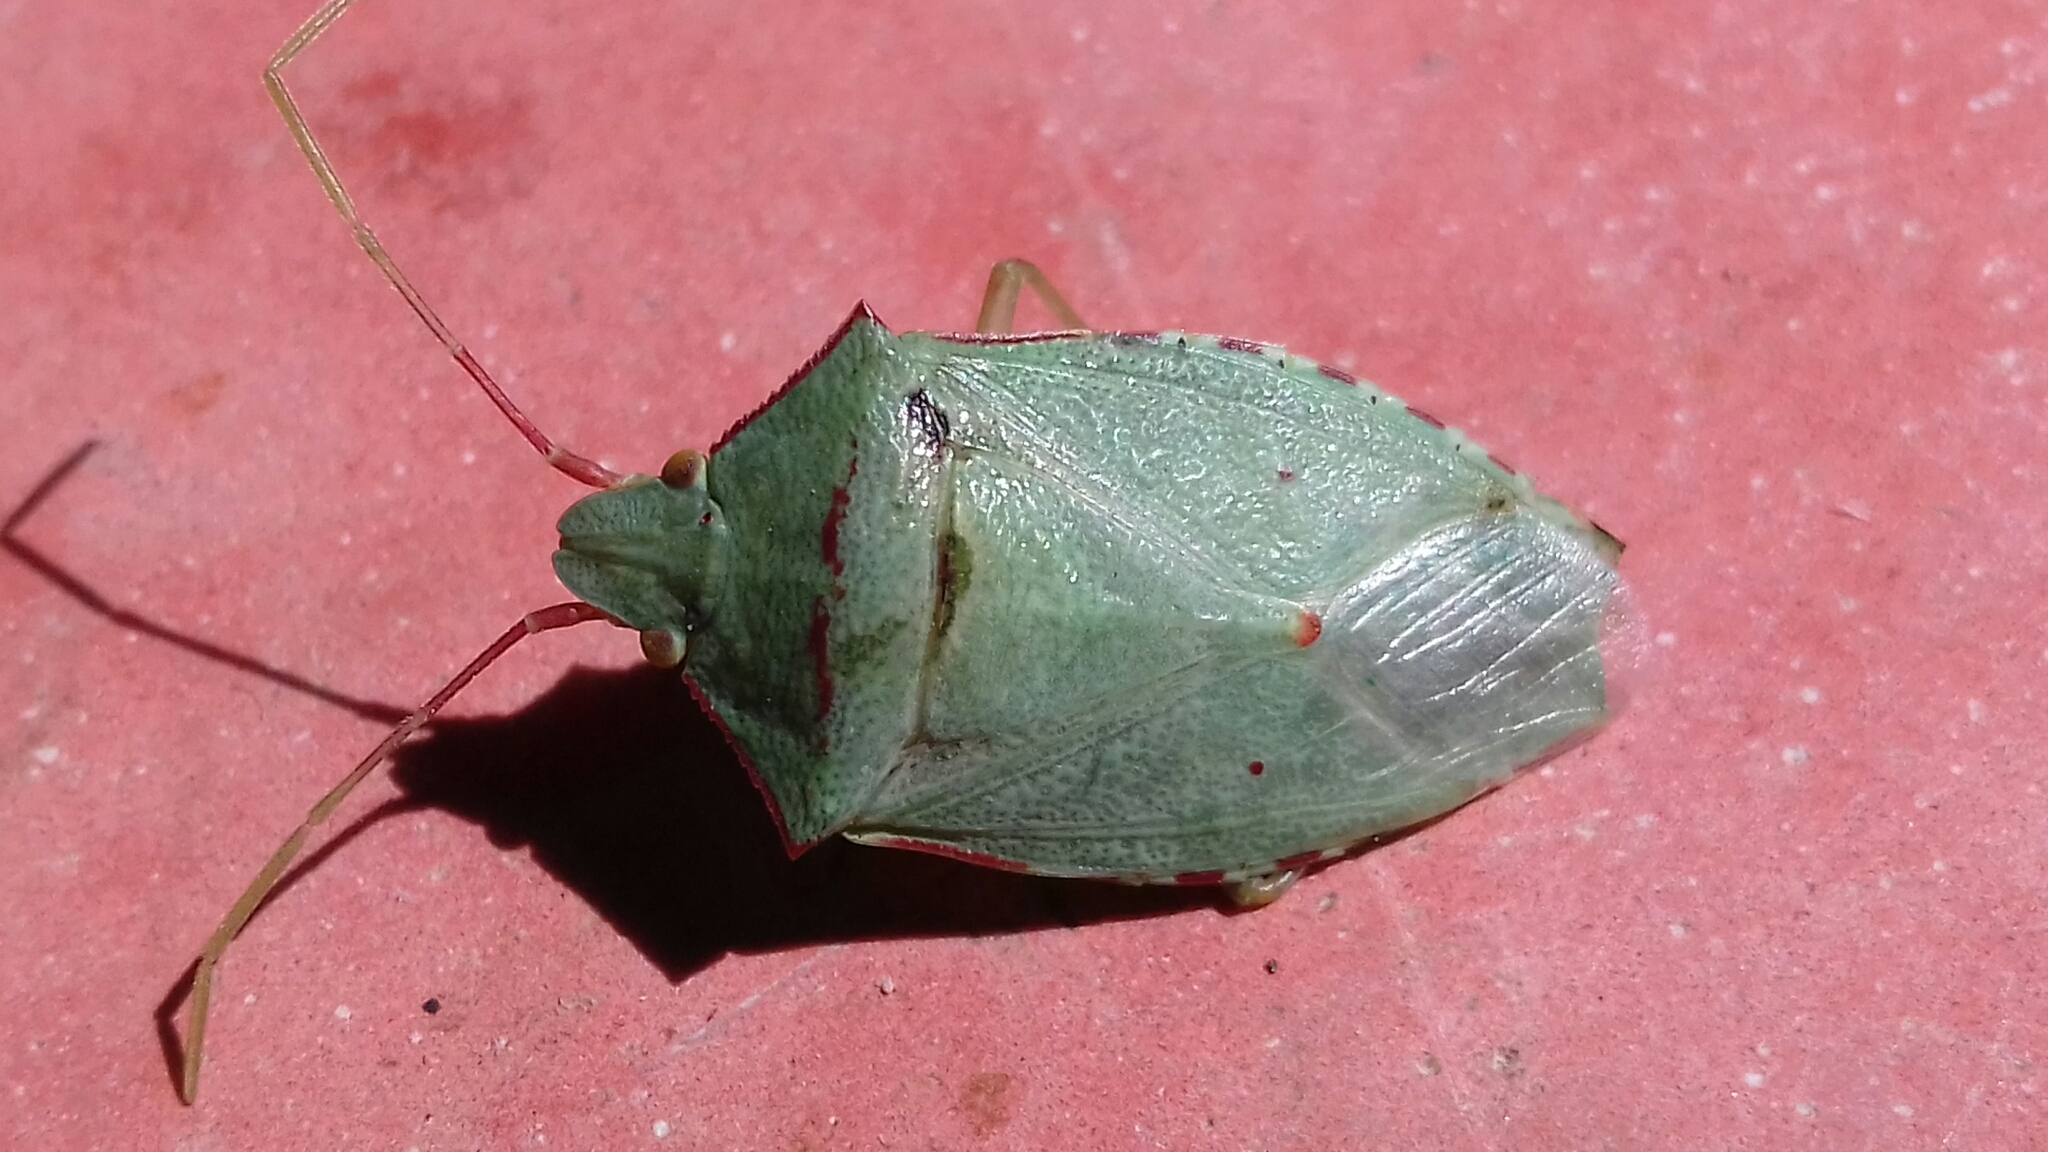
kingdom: Animalia
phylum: Arthropoda
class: Insecta
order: Hemiptera
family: Pentatomidae
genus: Chlorocoris
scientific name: Chlorocoris
